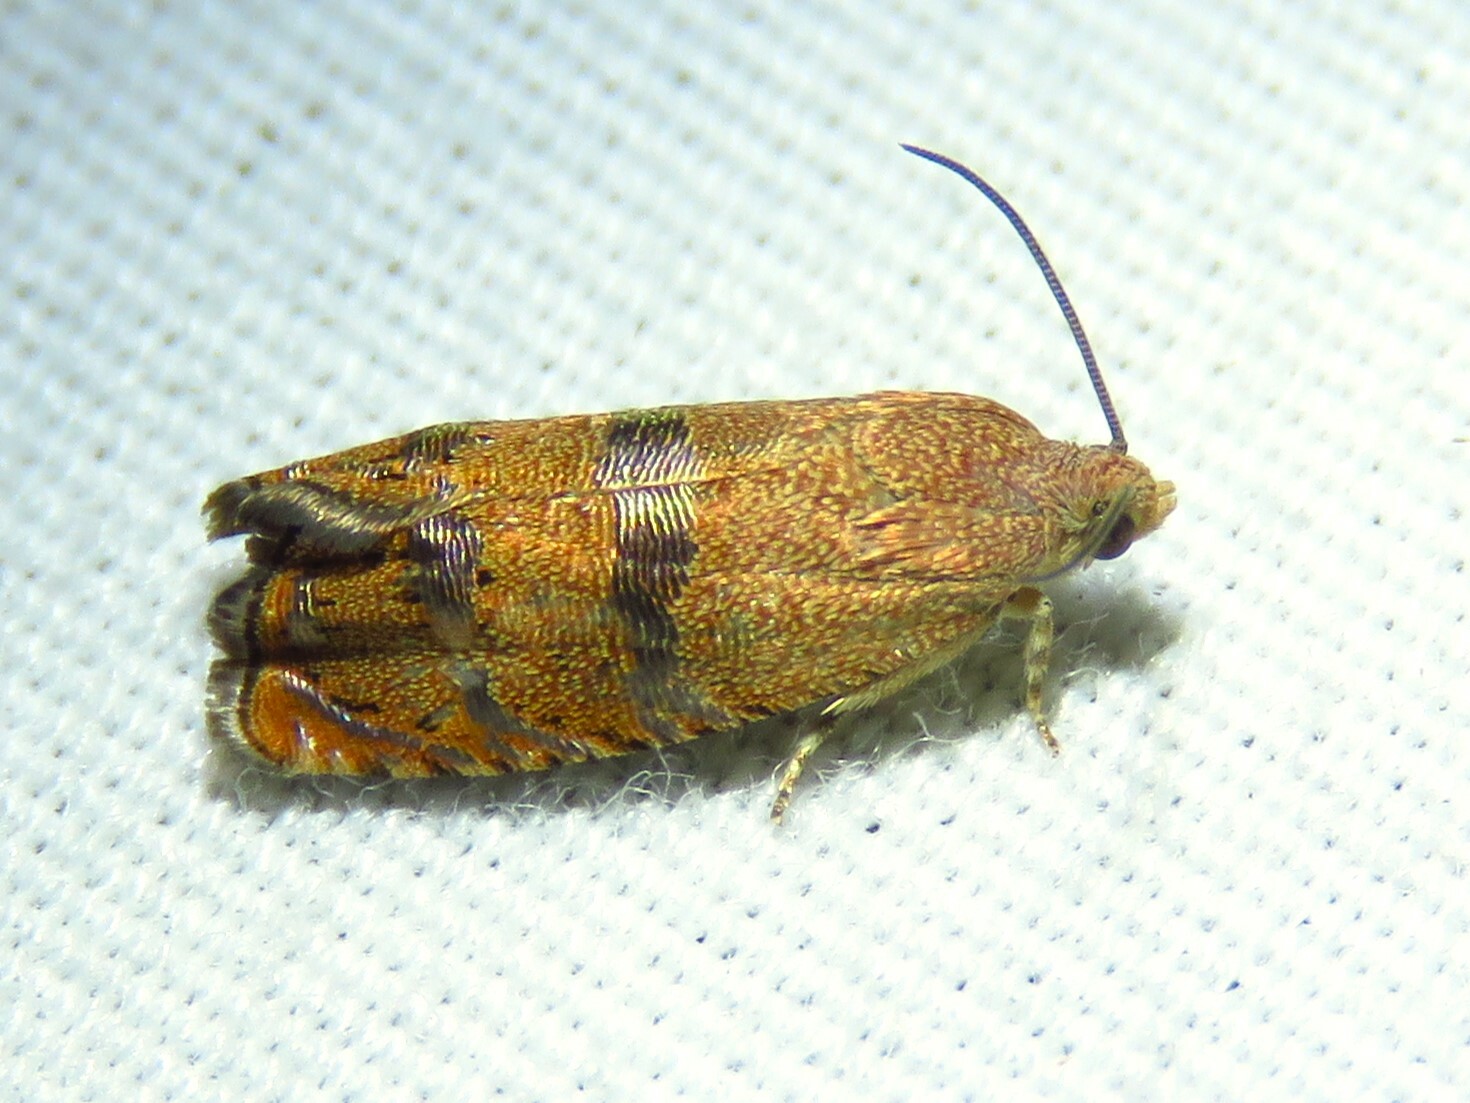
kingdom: Animalia
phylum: Arthropoda
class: Insecta
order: Lepidoptera
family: Tortricidae
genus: Cydia
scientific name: Cydia latiferreana
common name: Filbertworm moth
